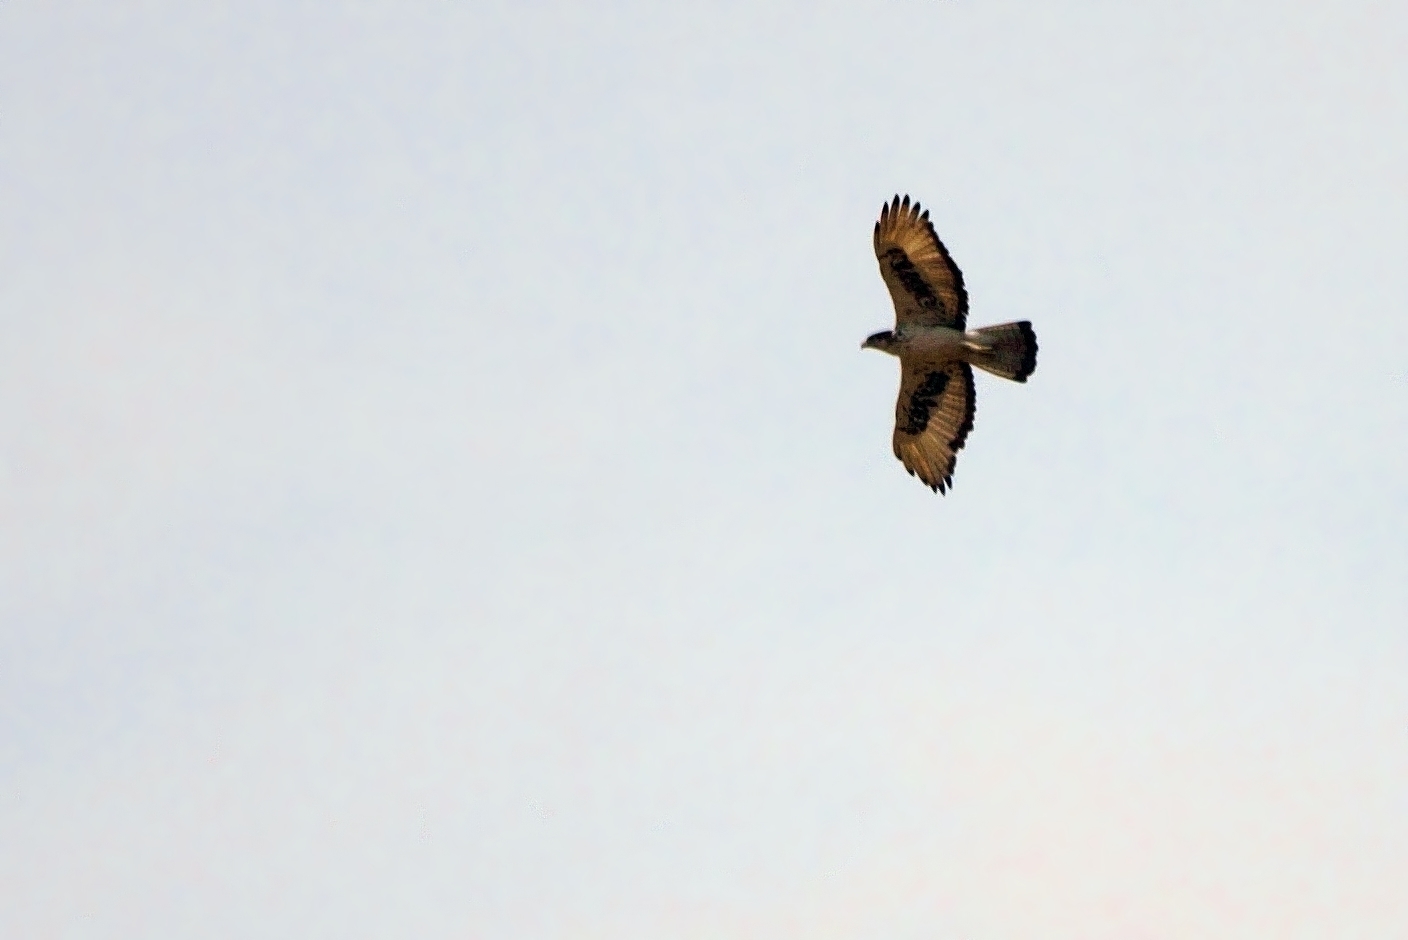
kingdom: Animalia
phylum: Chordata
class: Aves
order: Accipitriformes
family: Accipitridae
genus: Aquila
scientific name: Aquila spilogaster
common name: African hawk-eagle
